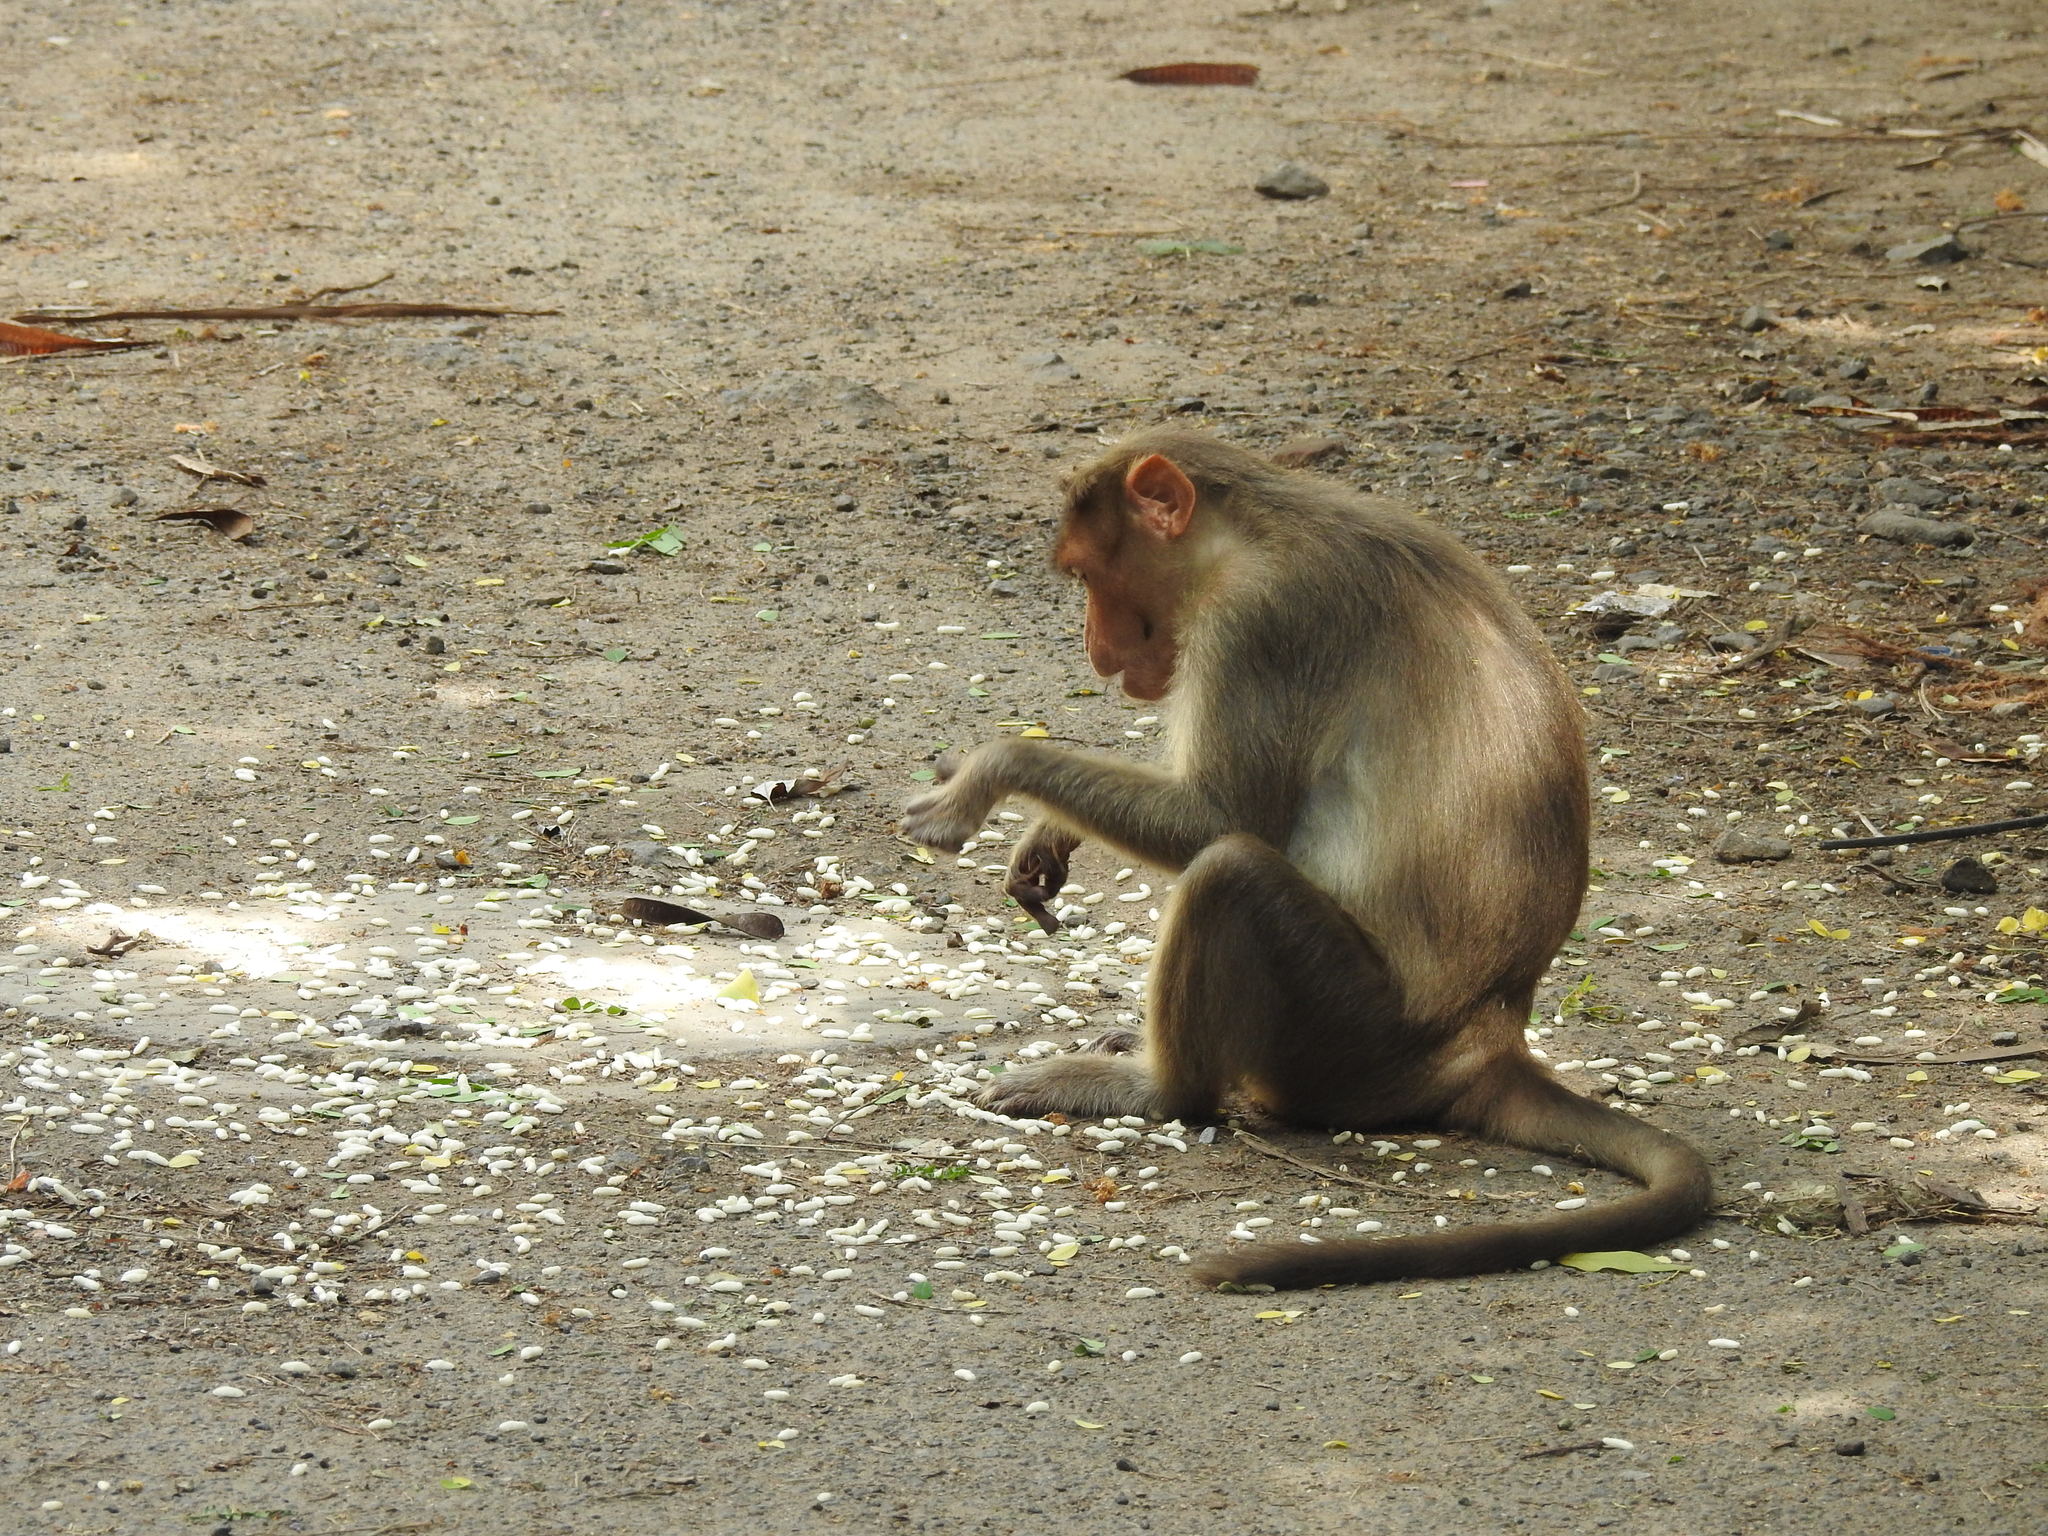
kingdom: Animalia
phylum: Chordata
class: Mammalia
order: Primates
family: Cercopithecidae
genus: Macaca
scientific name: Macaca radiata
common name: Bonnet macaque
